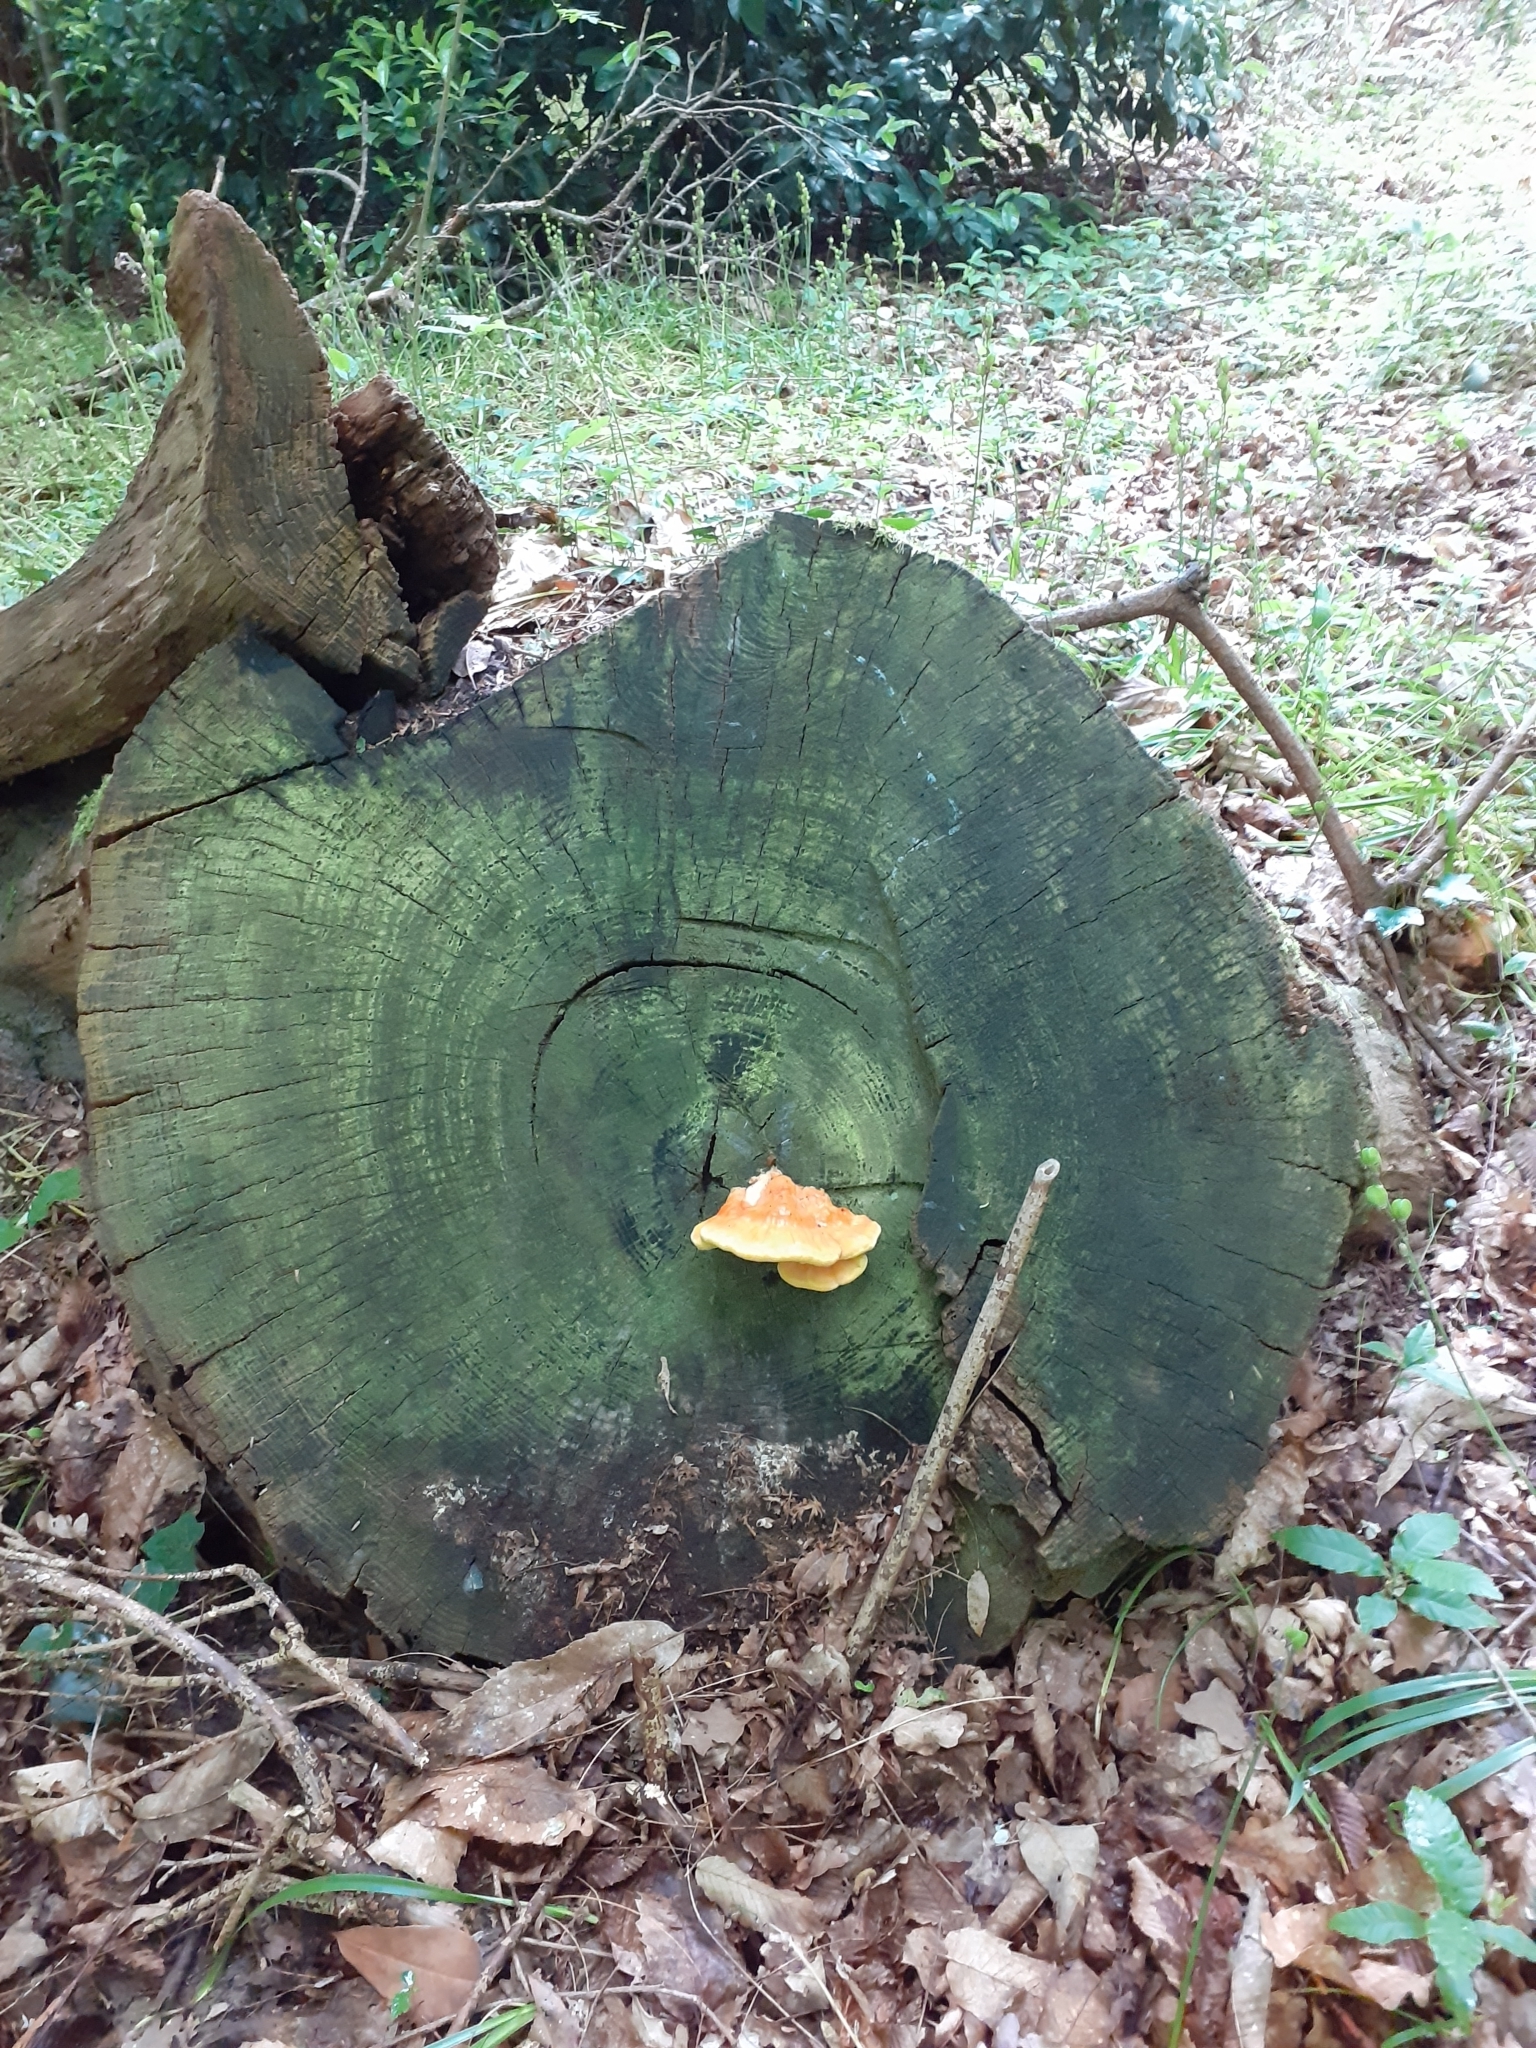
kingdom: Fungi
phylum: Basidiomycota
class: Agaricomycetes
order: Polyporales
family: Laetiporaceae
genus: Laetiporus
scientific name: Laetiporus sulphureus
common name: Chicken of the woods
